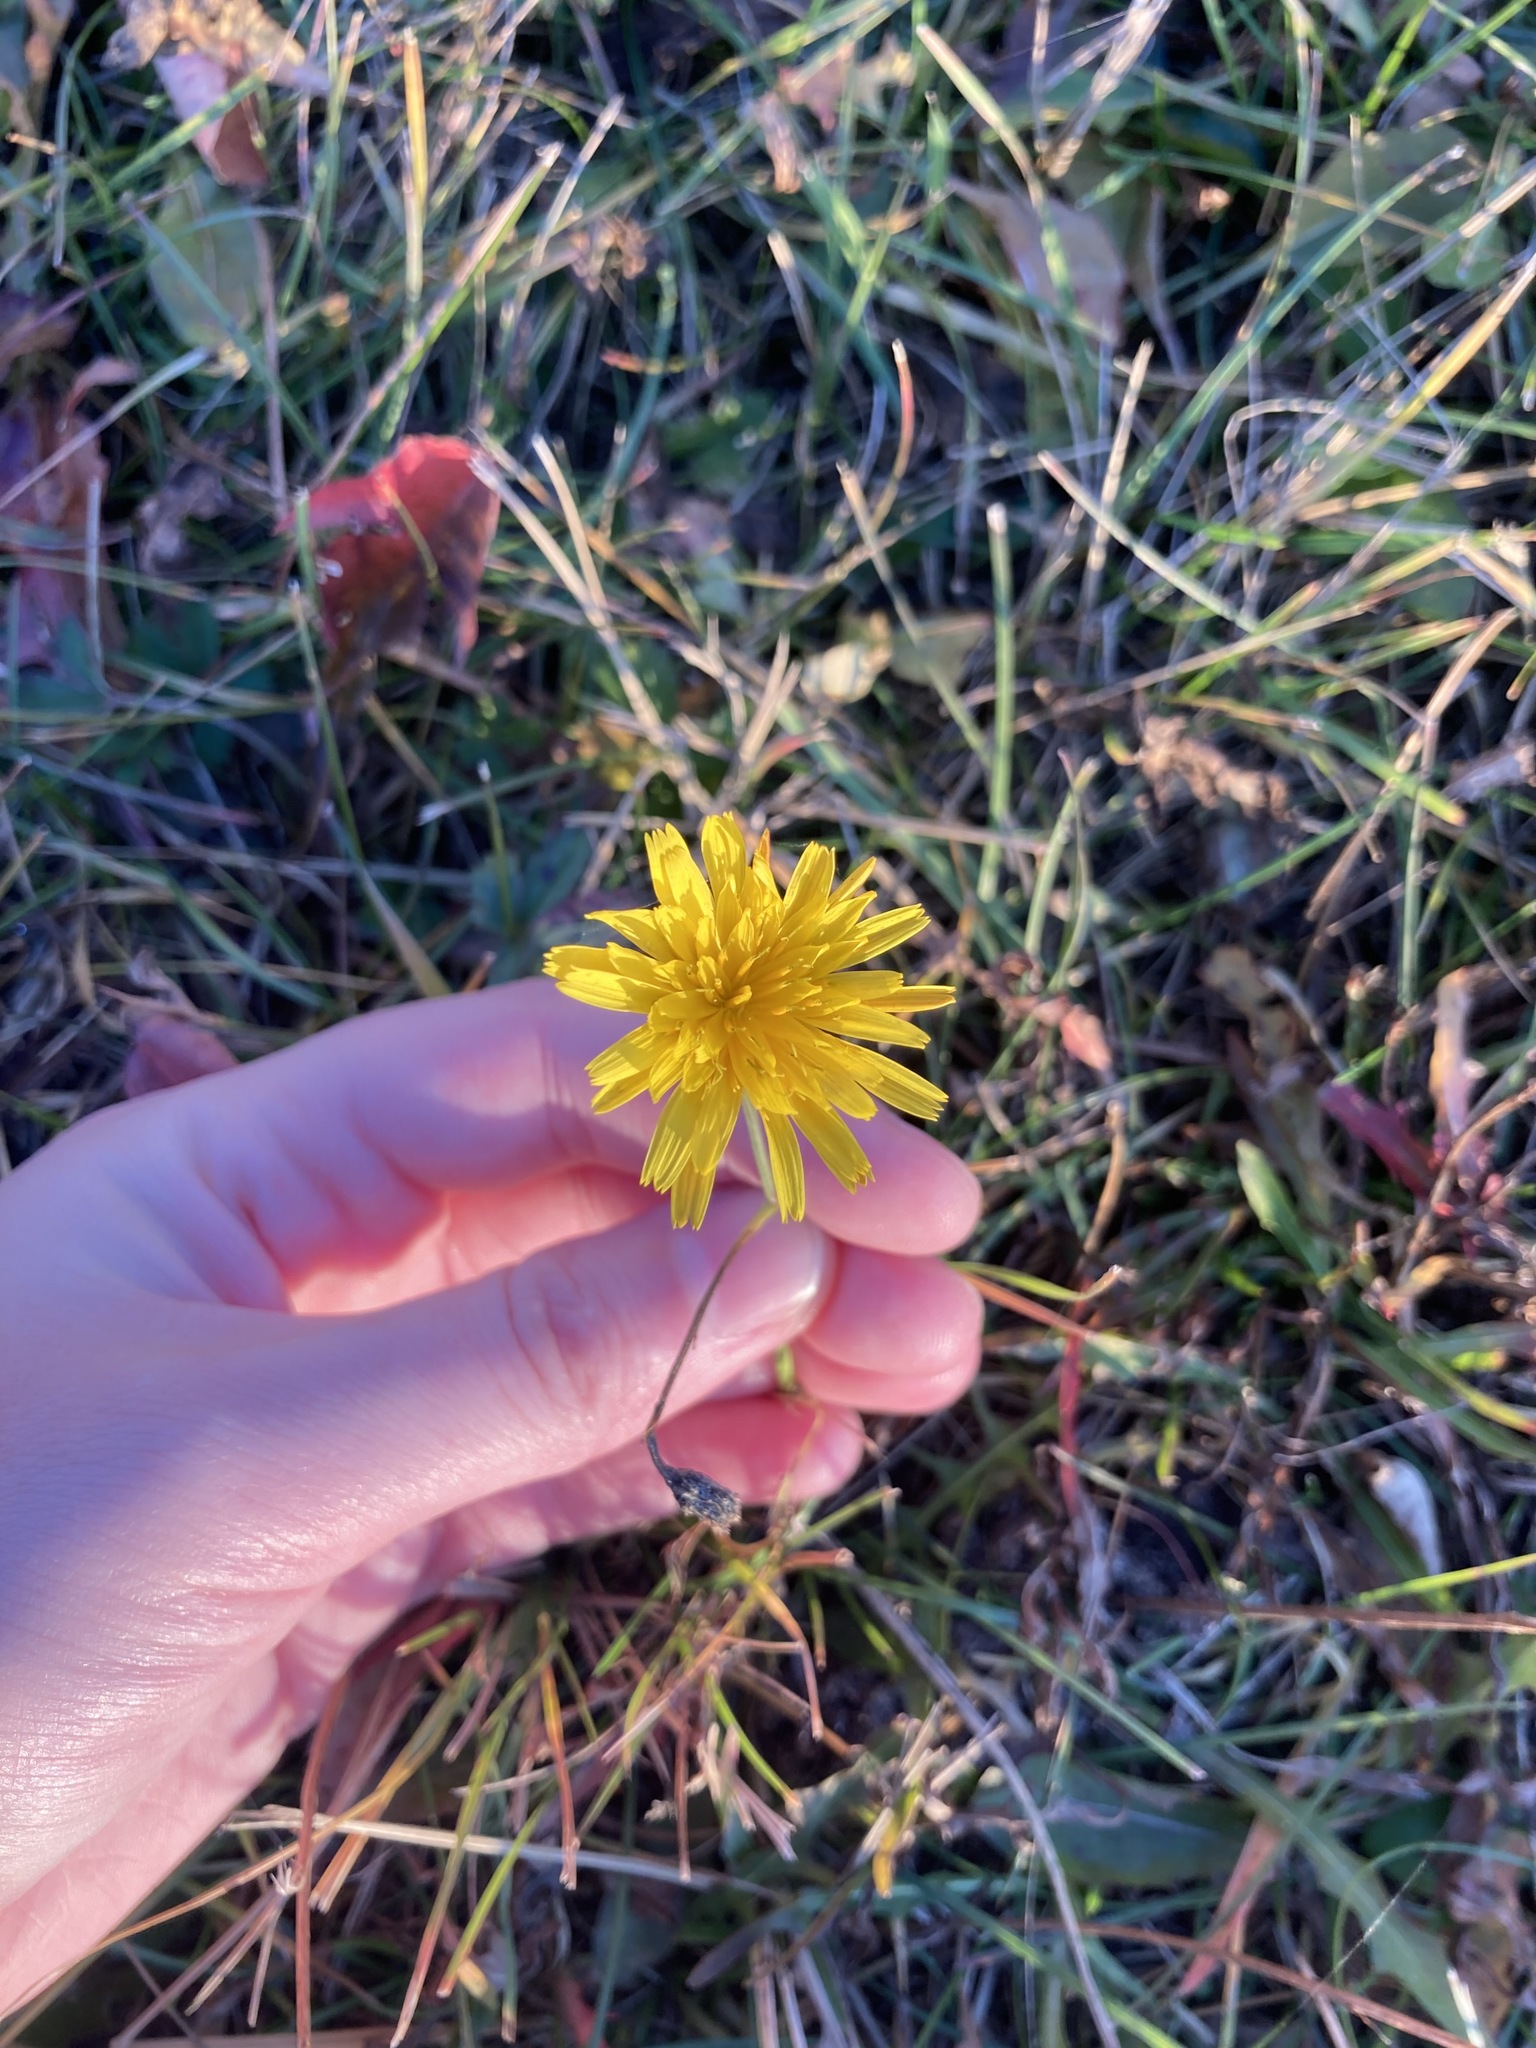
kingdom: Plantae
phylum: Tracheophyta
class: Magnoliopsida
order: Asterales
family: Asteraceae
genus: Scorzoneroides
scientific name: Scorzoneroides autumnalis
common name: Autumn hawkbit
